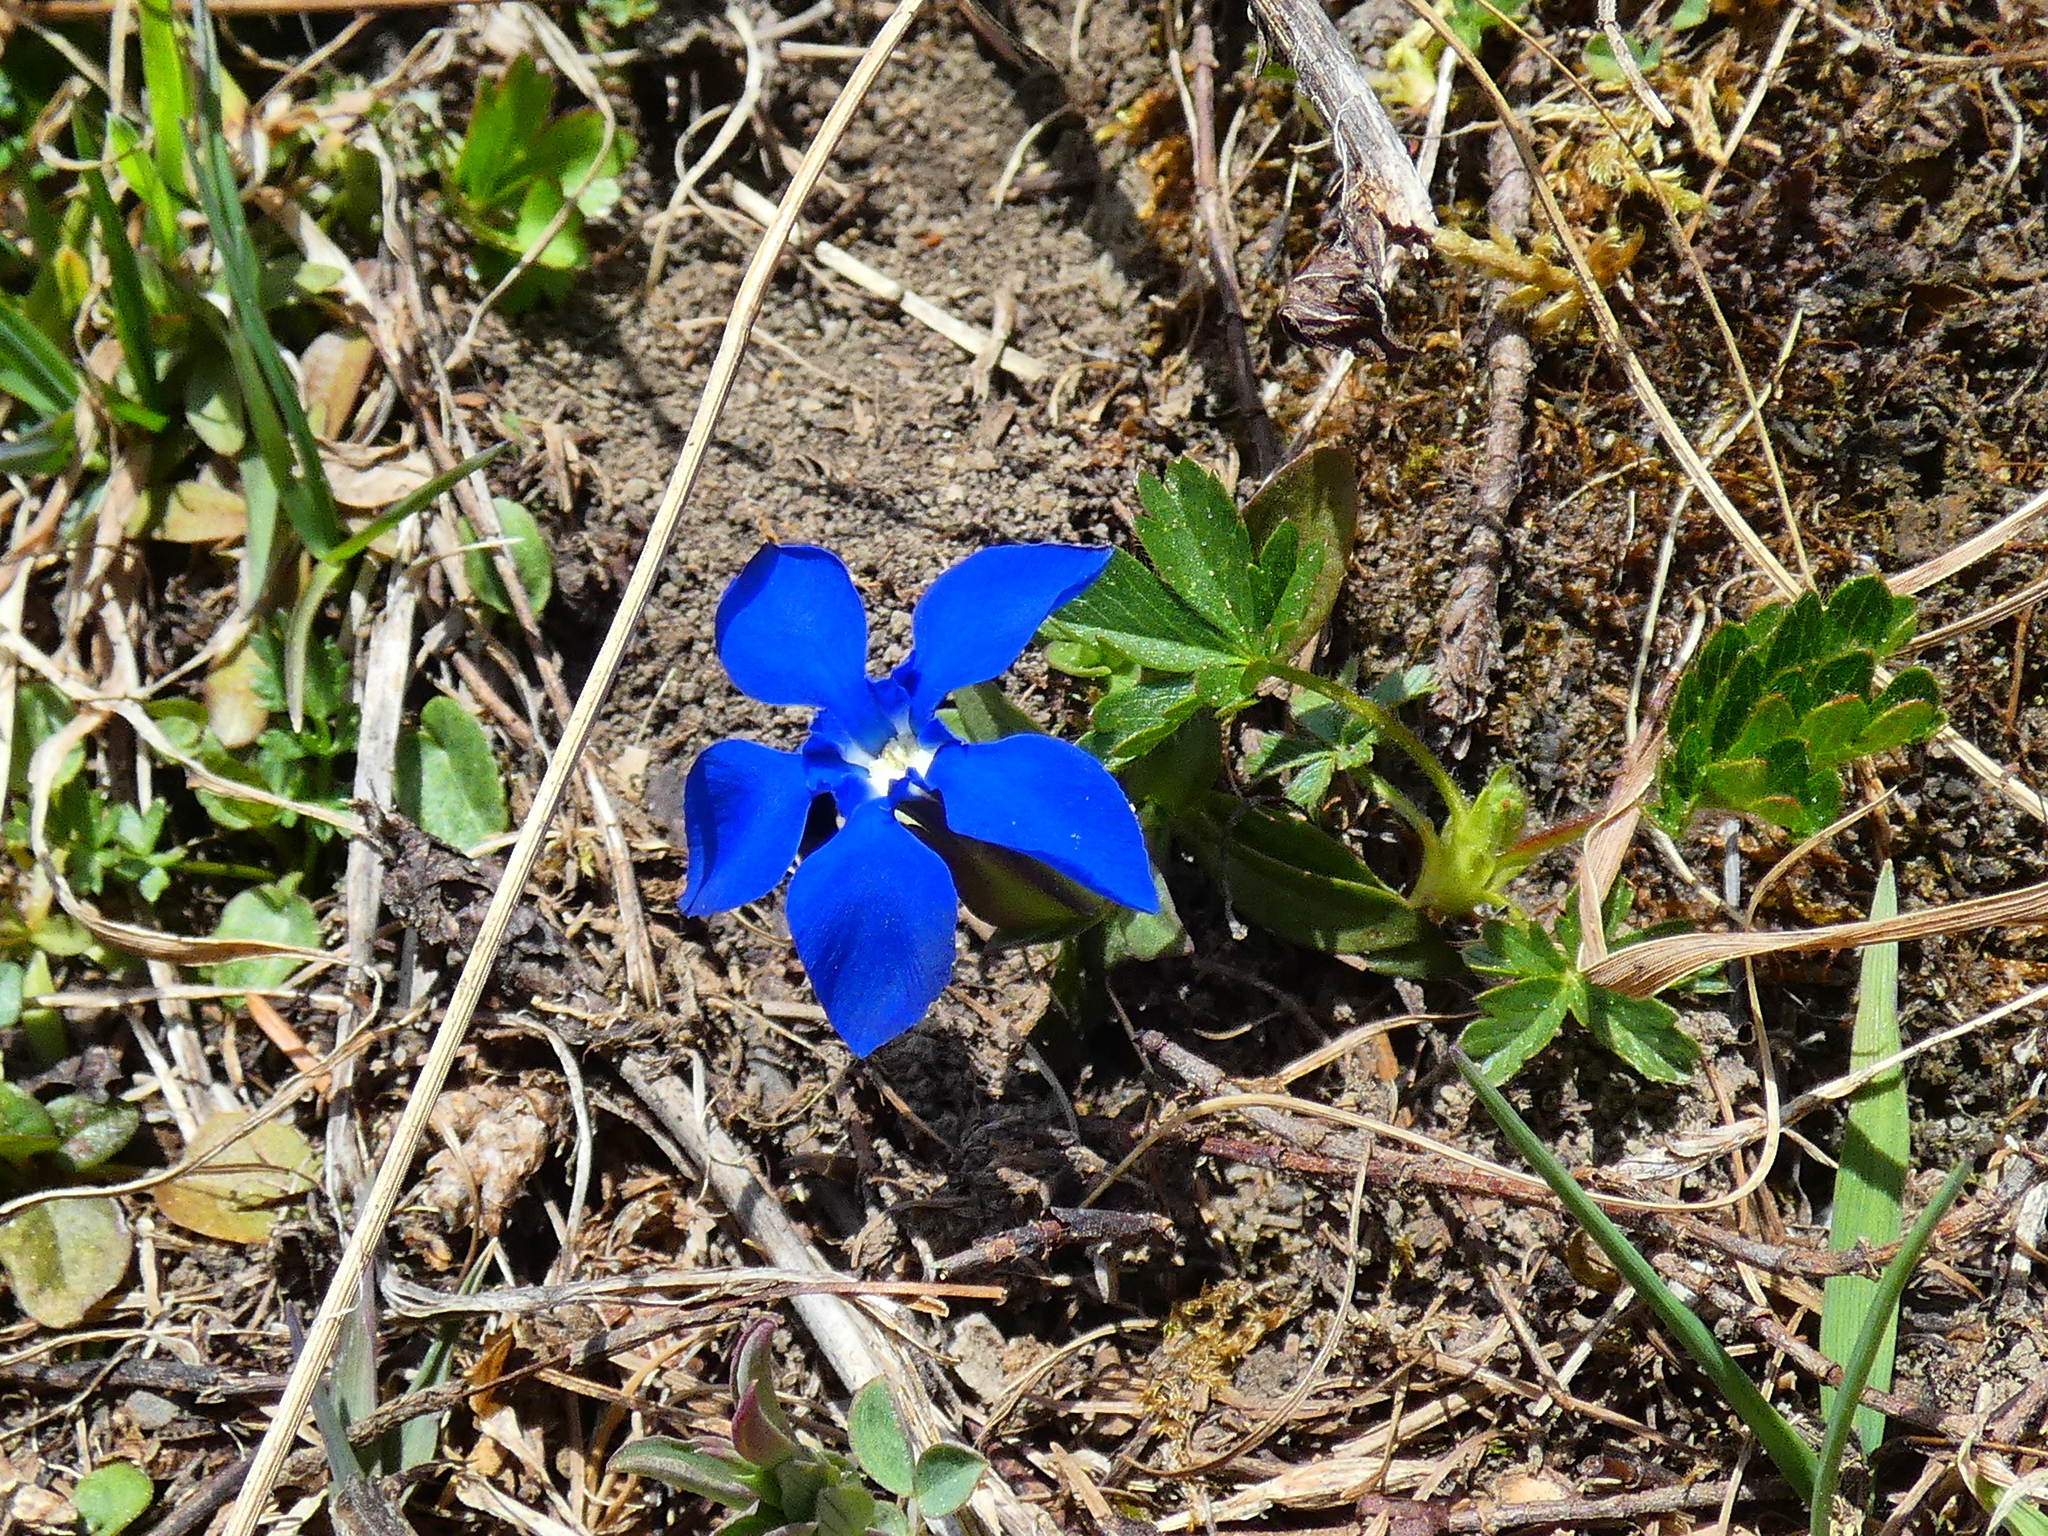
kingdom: Plantae
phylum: Tracheophyta
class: Magnoliopsida
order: Gentianales
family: Gentianaceae
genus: Gentiana
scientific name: Gentiana verna
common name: Spring gentian
